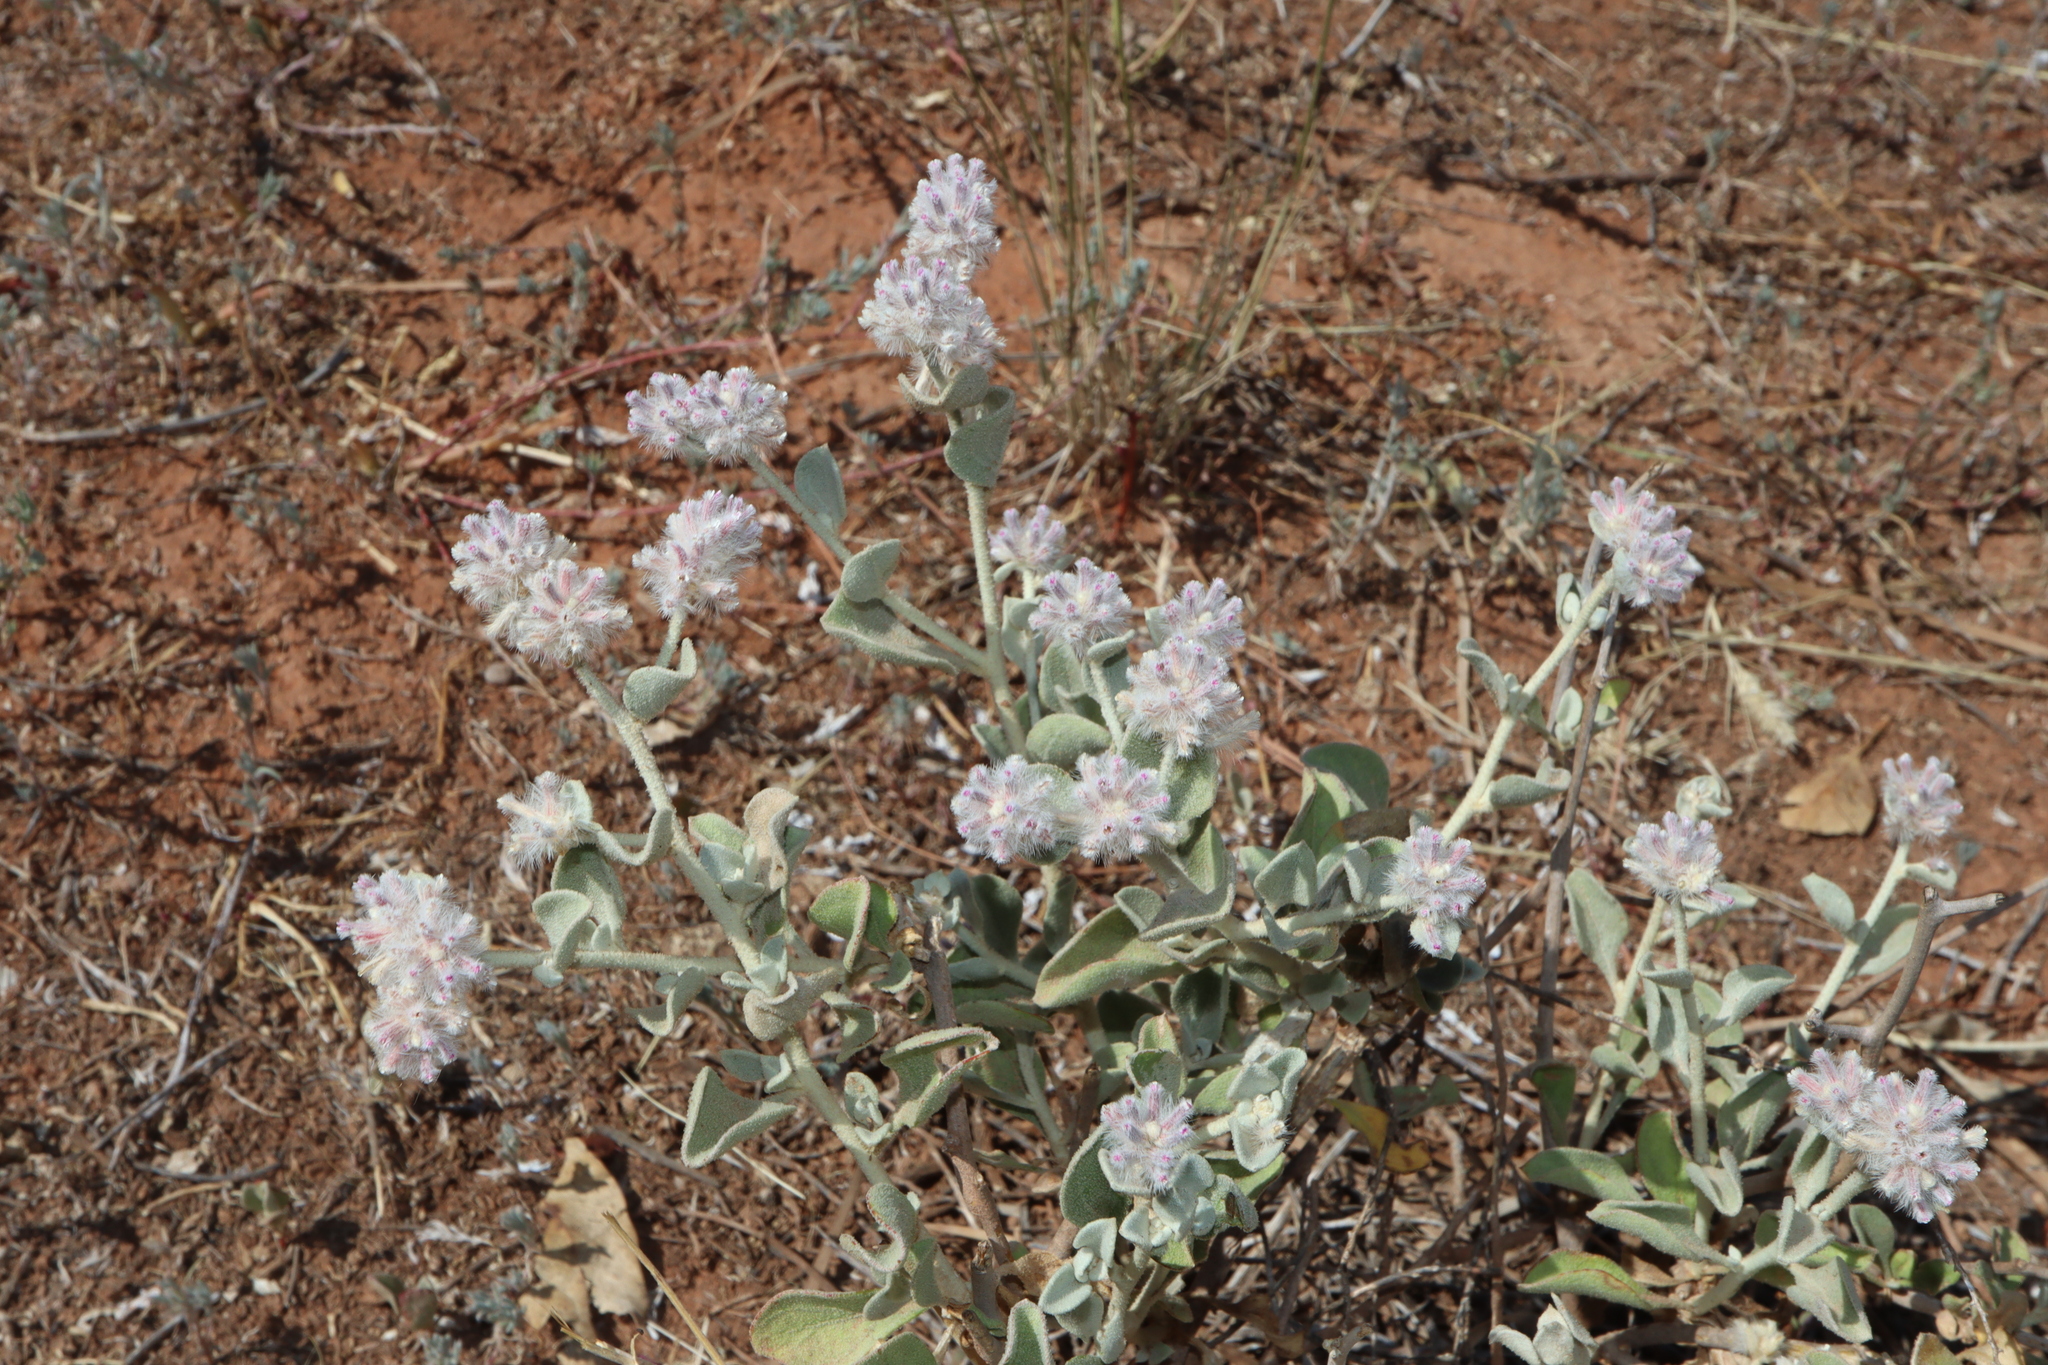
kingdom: Plantae
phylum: Tracheophyta
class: Magnoliopsida
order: Caryophyllales
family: Amaranthaceae
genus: Ptilotus
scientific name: Ptilotus obovatus
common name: Cottonbush
